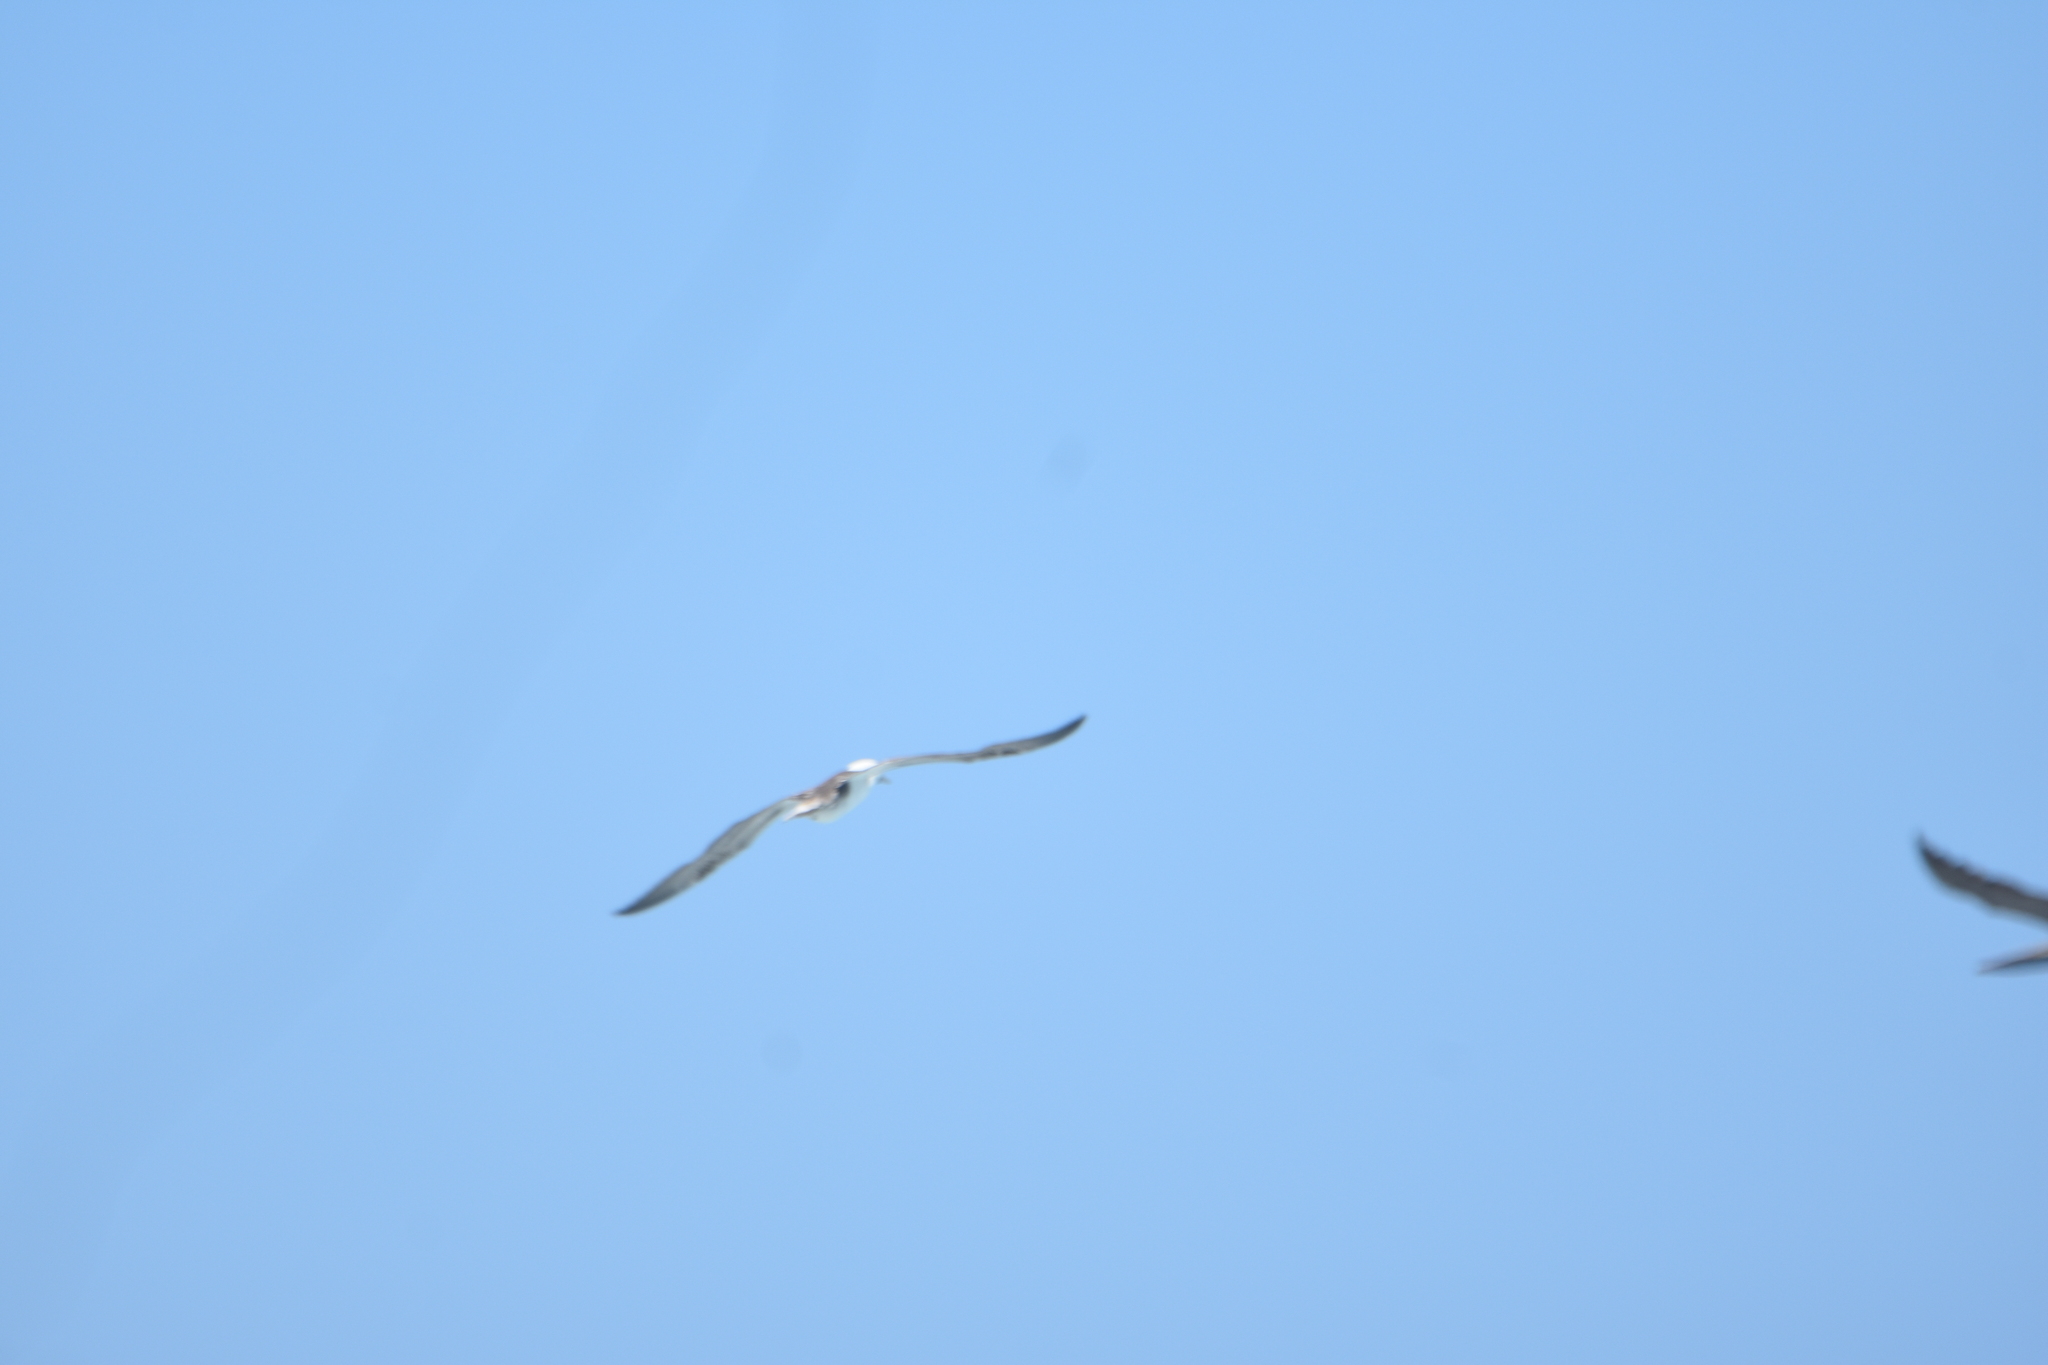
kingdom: Animalia
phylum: Chordata
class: Aves
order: Suliformes
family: Sulidae
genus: Sula
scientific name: Sula variegata
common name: Peruvian booby
